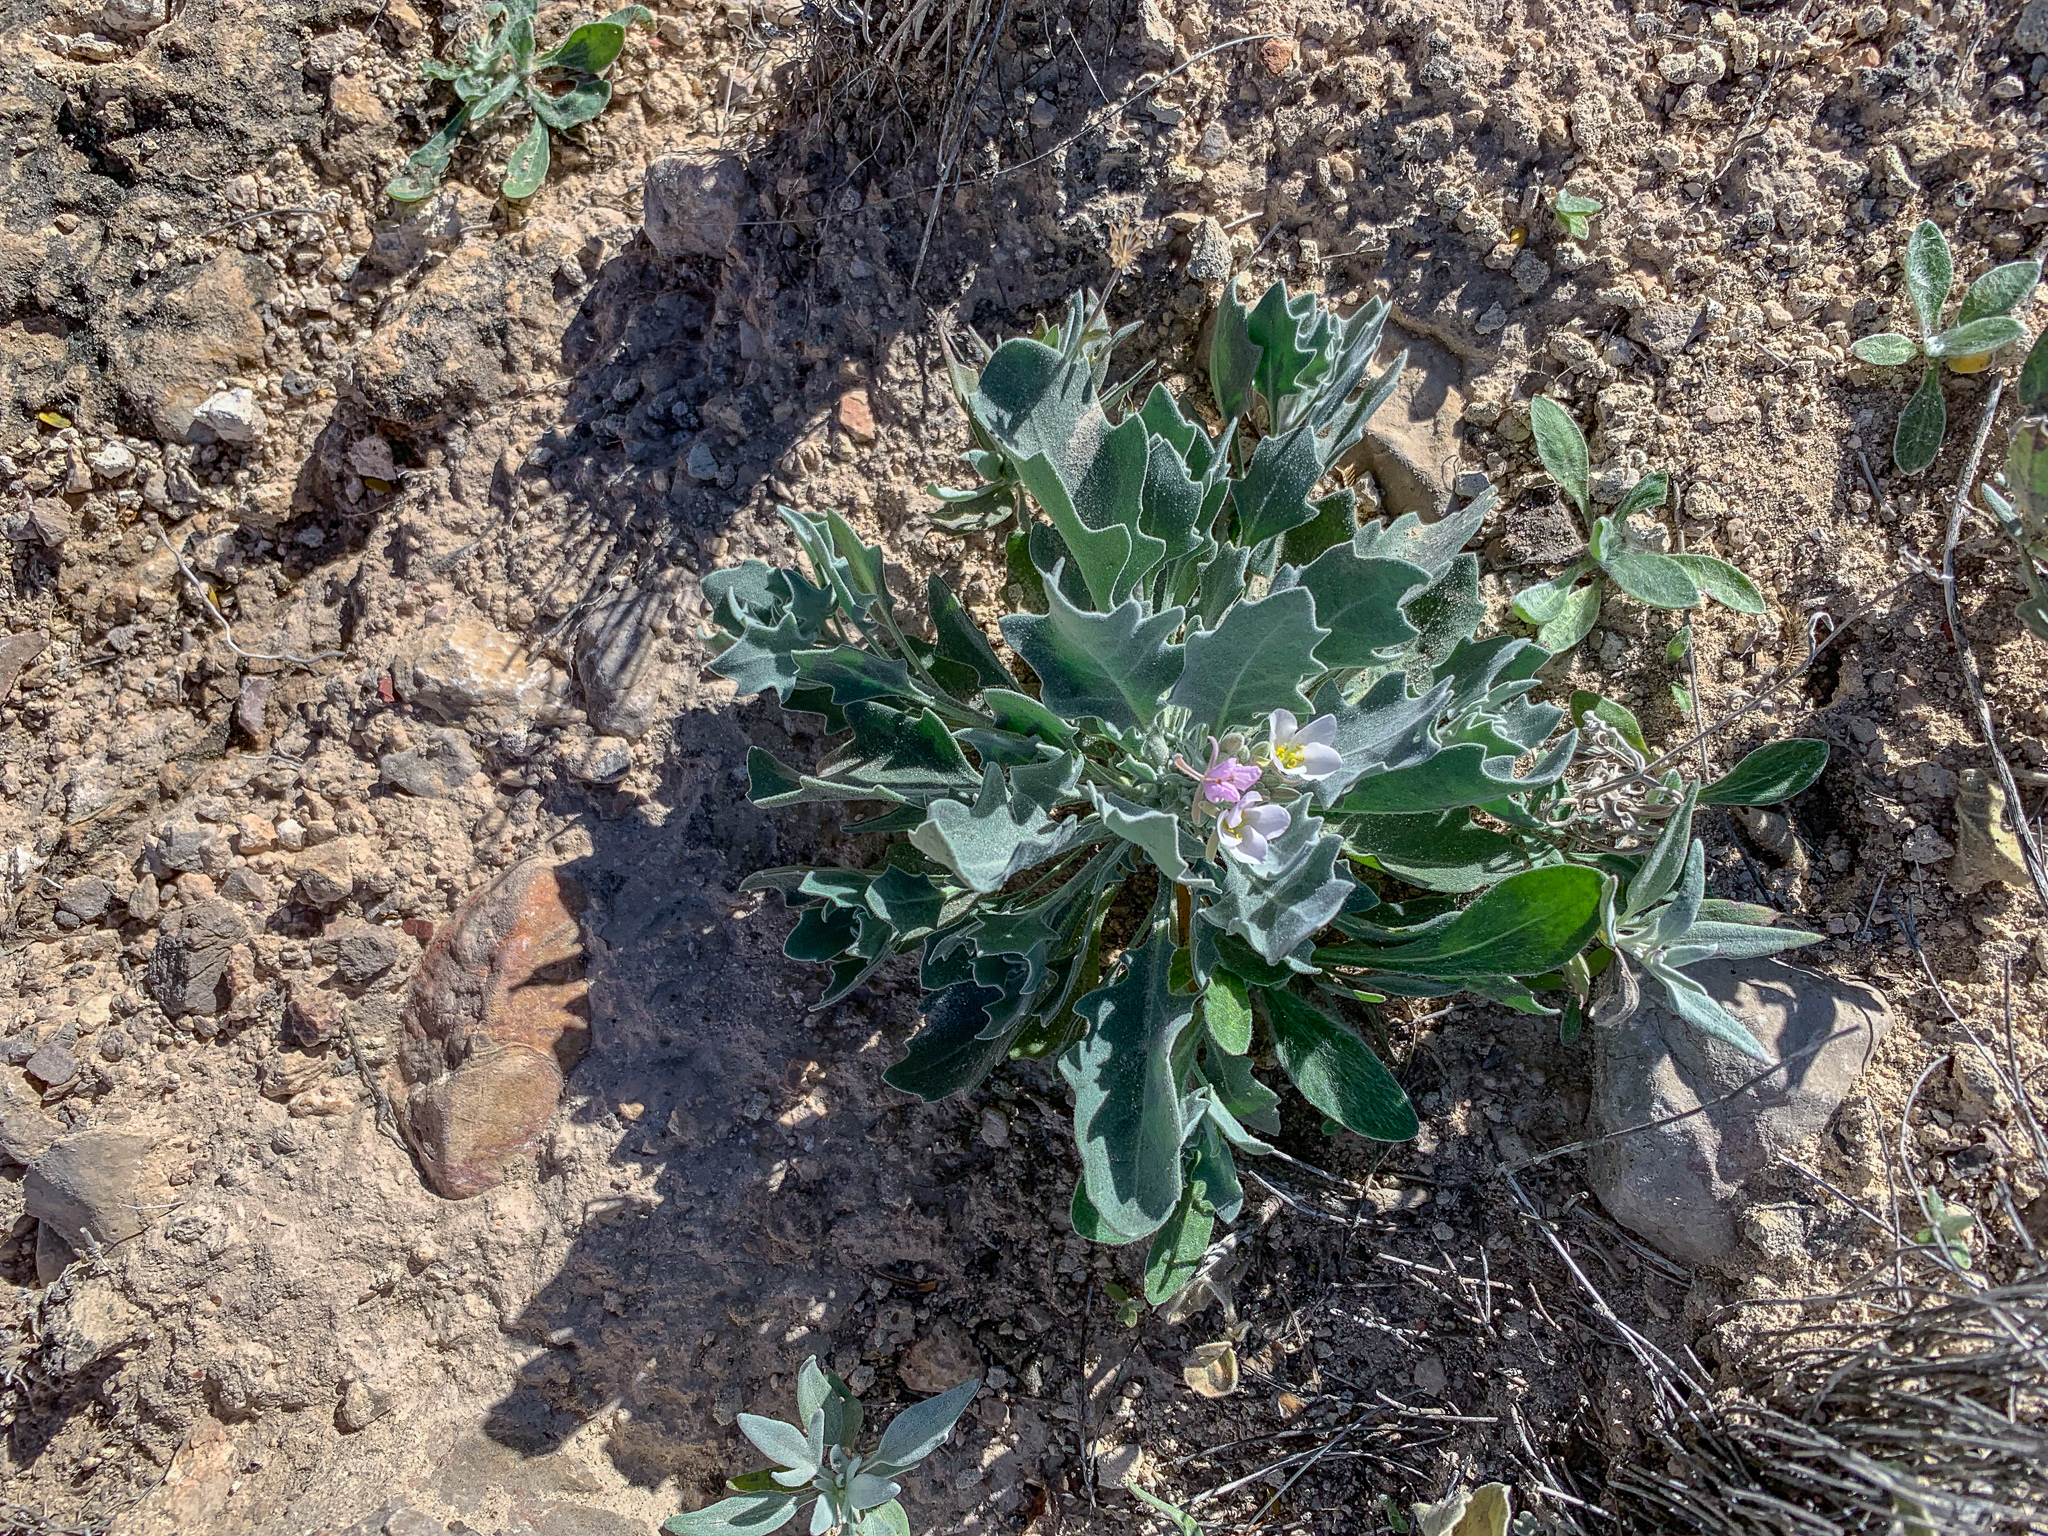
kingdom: Plantae
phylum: Tracheophyta
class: Magnoliopsida
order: Brassicales
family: Brassicaceae
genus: Nerisyrenia
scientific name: Nerisyrenia camporum
